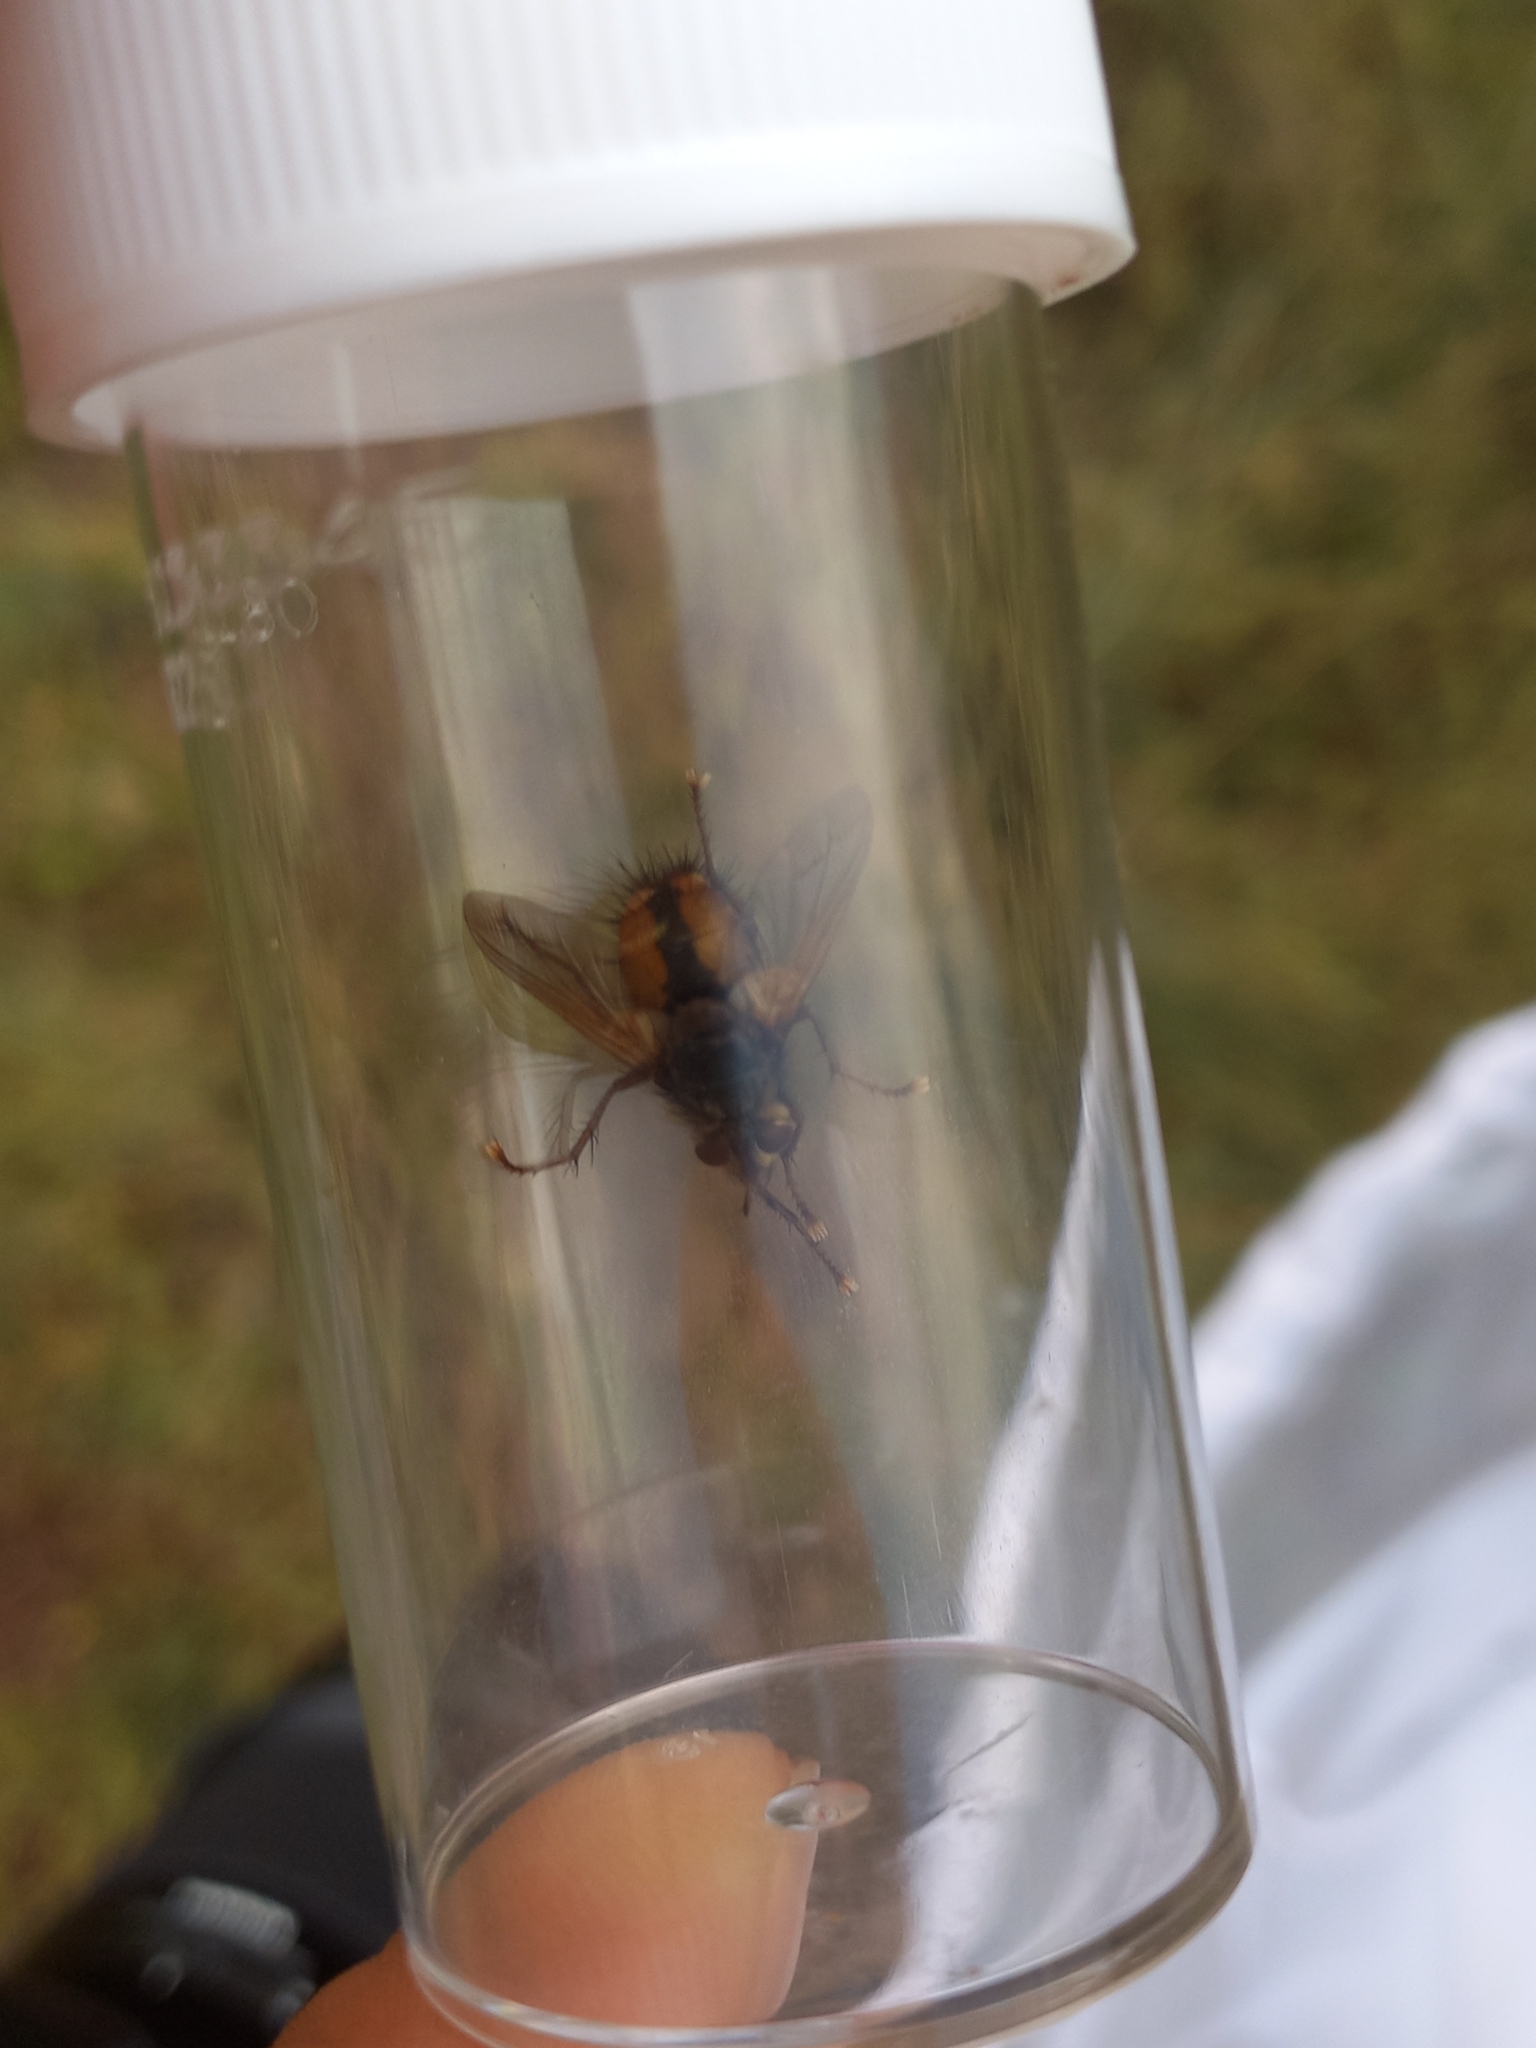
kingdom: Animalia
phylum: Arthropoda
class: Insecta
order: Diptera
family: Tachinidae
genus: Tachina
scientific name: Tachina fera
